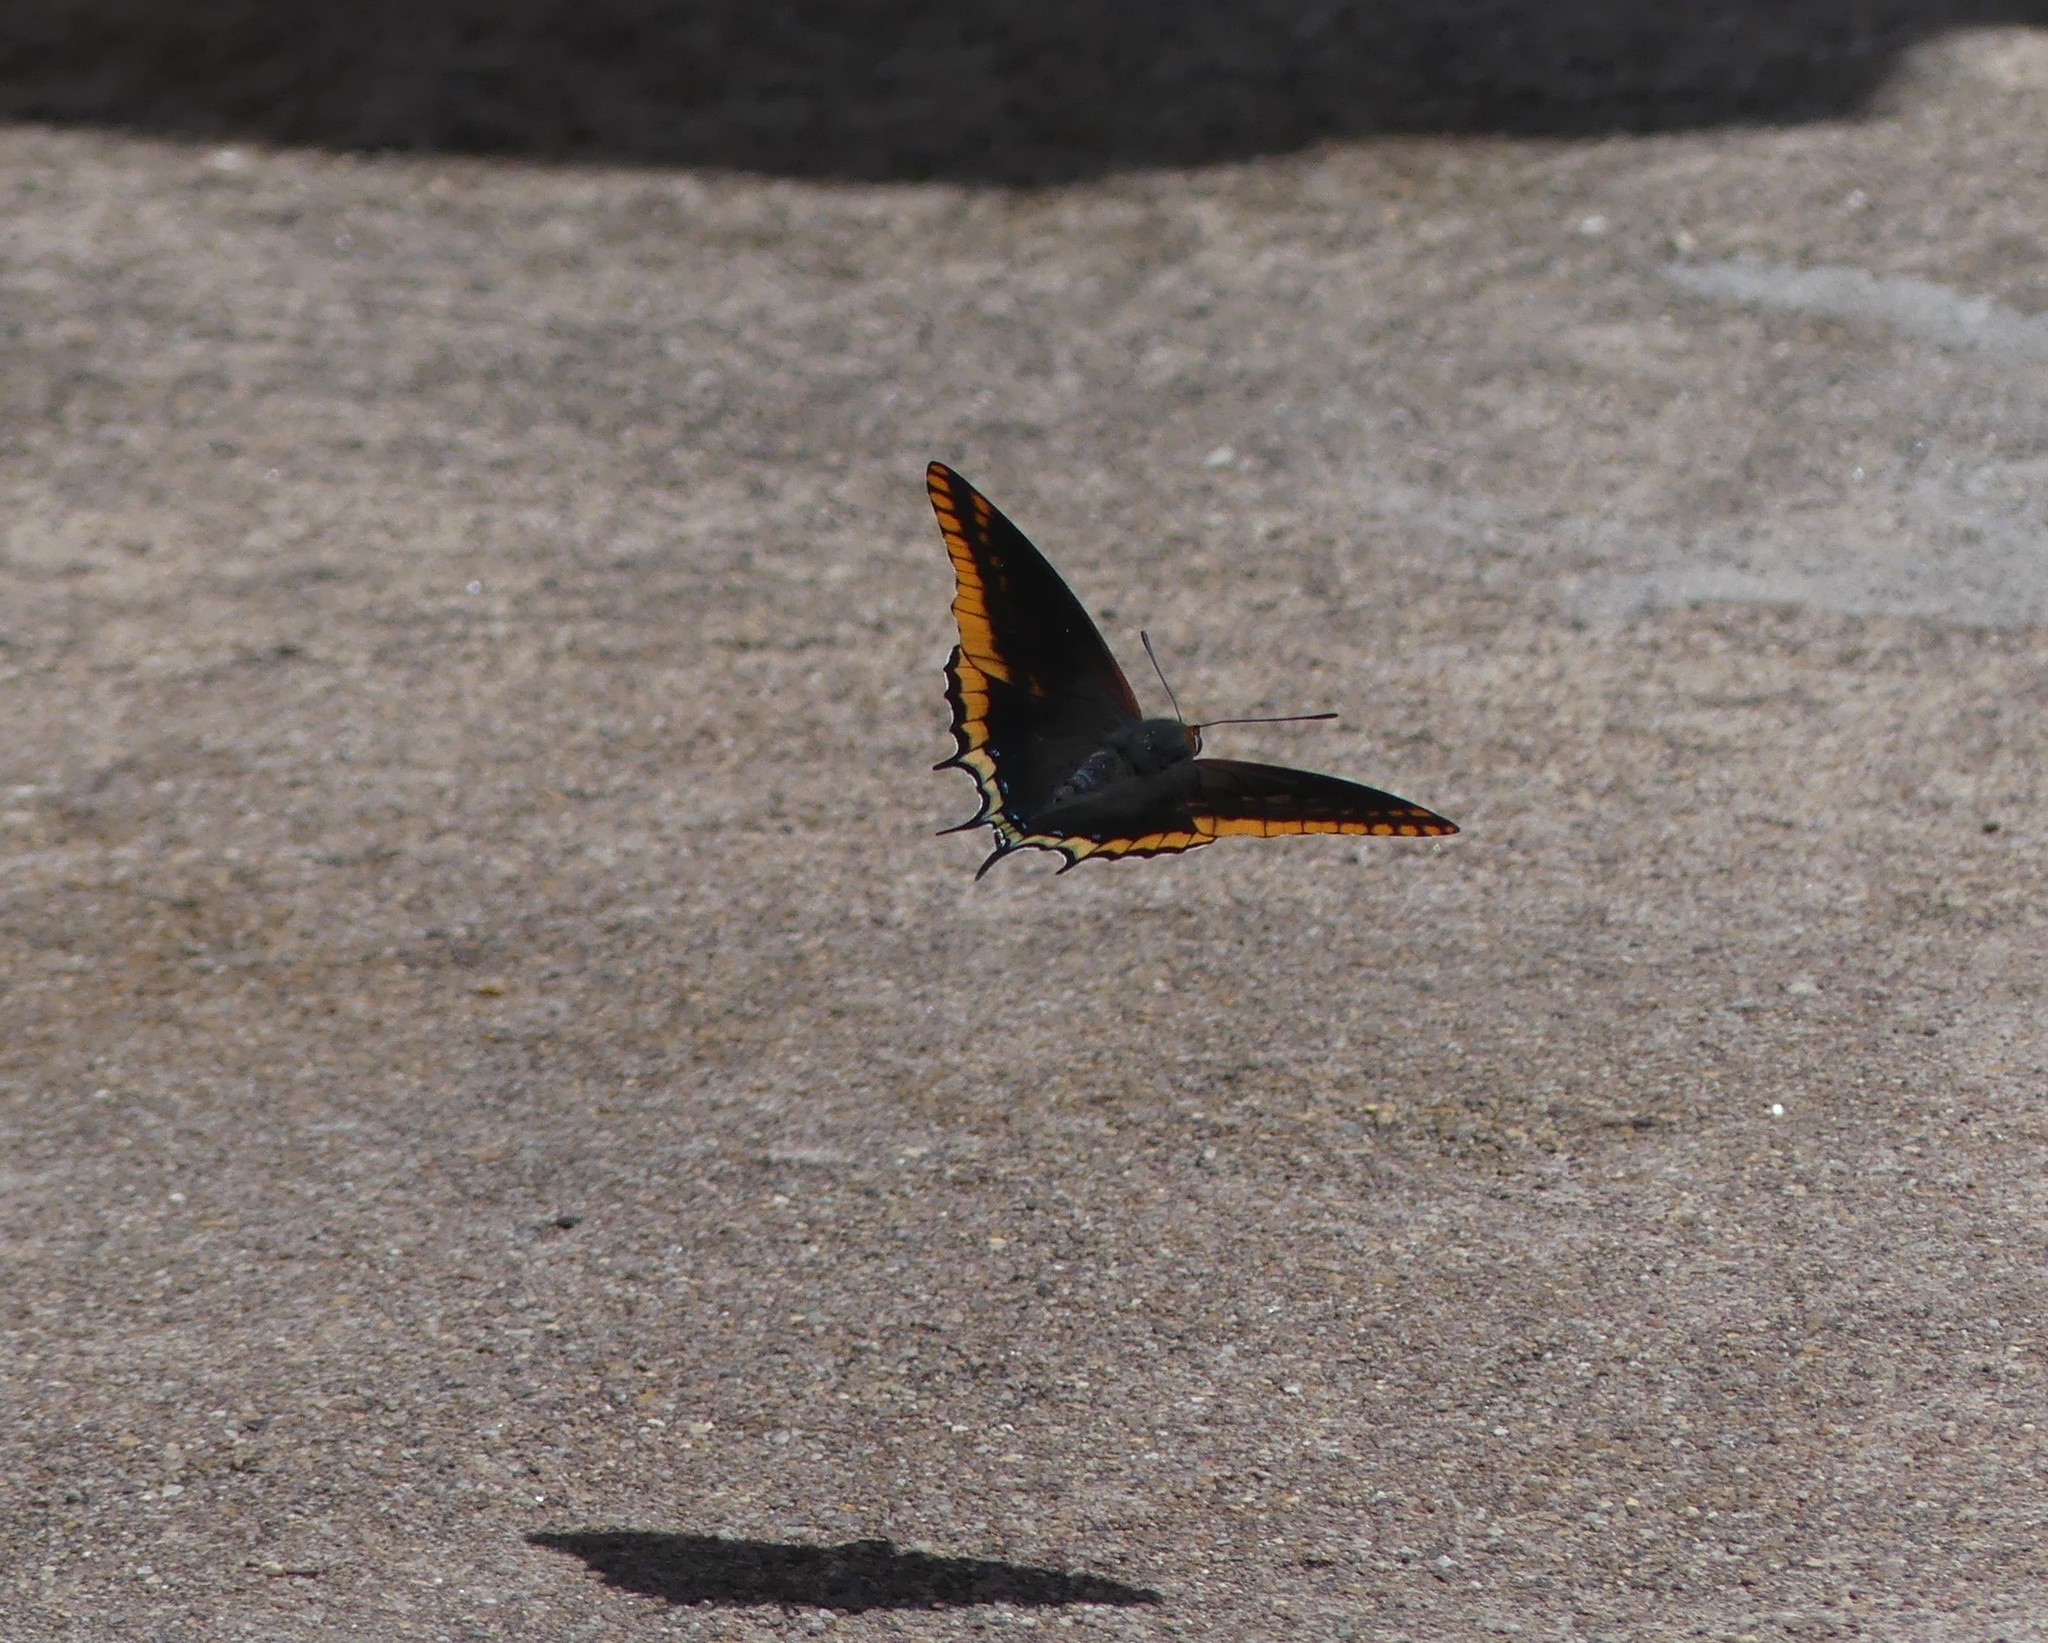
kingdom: Animalia
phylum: Arthropoda
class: Insecta
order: Lepidoptera
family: Nymphalidae
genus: Charaxes
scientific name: Charaxes jasius
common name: Two tailed pasha
